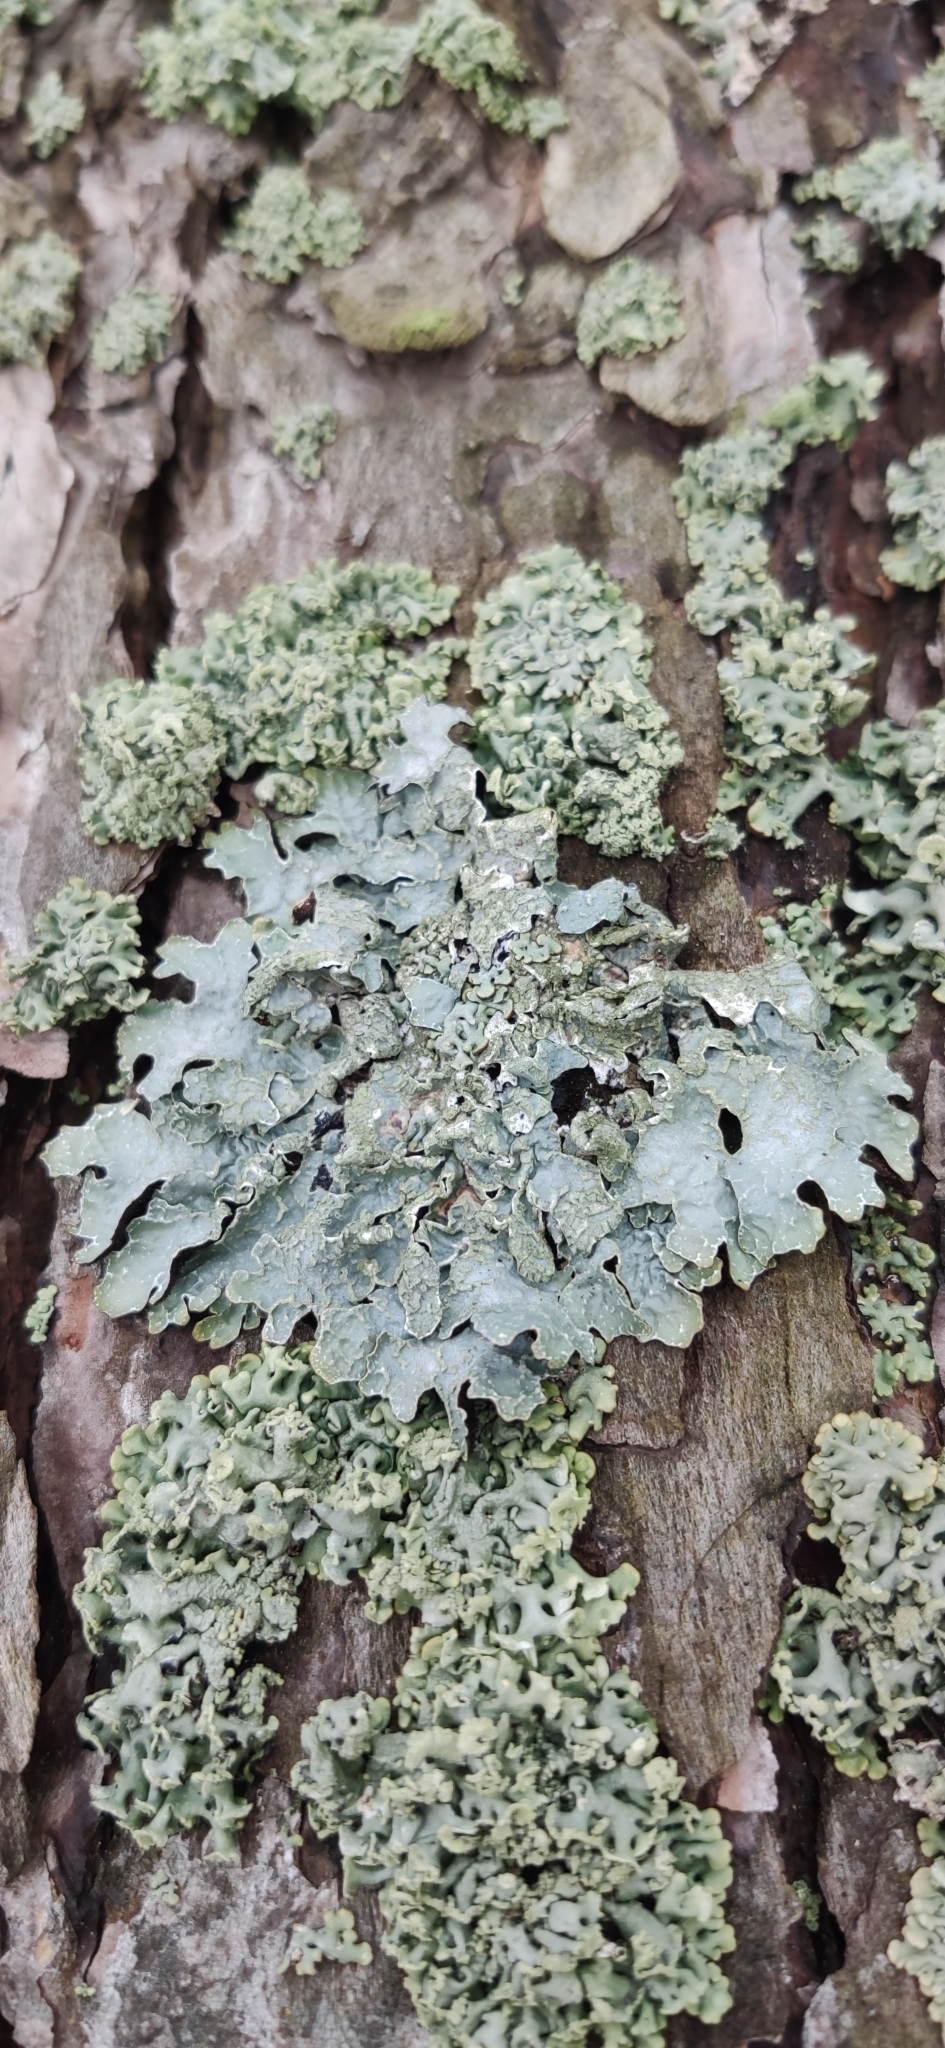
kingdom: Fungi
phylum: Ascomycota
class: Lecanoromycetes
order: Lecanorales
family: Parmeliaceae
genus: Parmelia
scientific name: Parmelia sulcata
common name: Netted shield lichen
